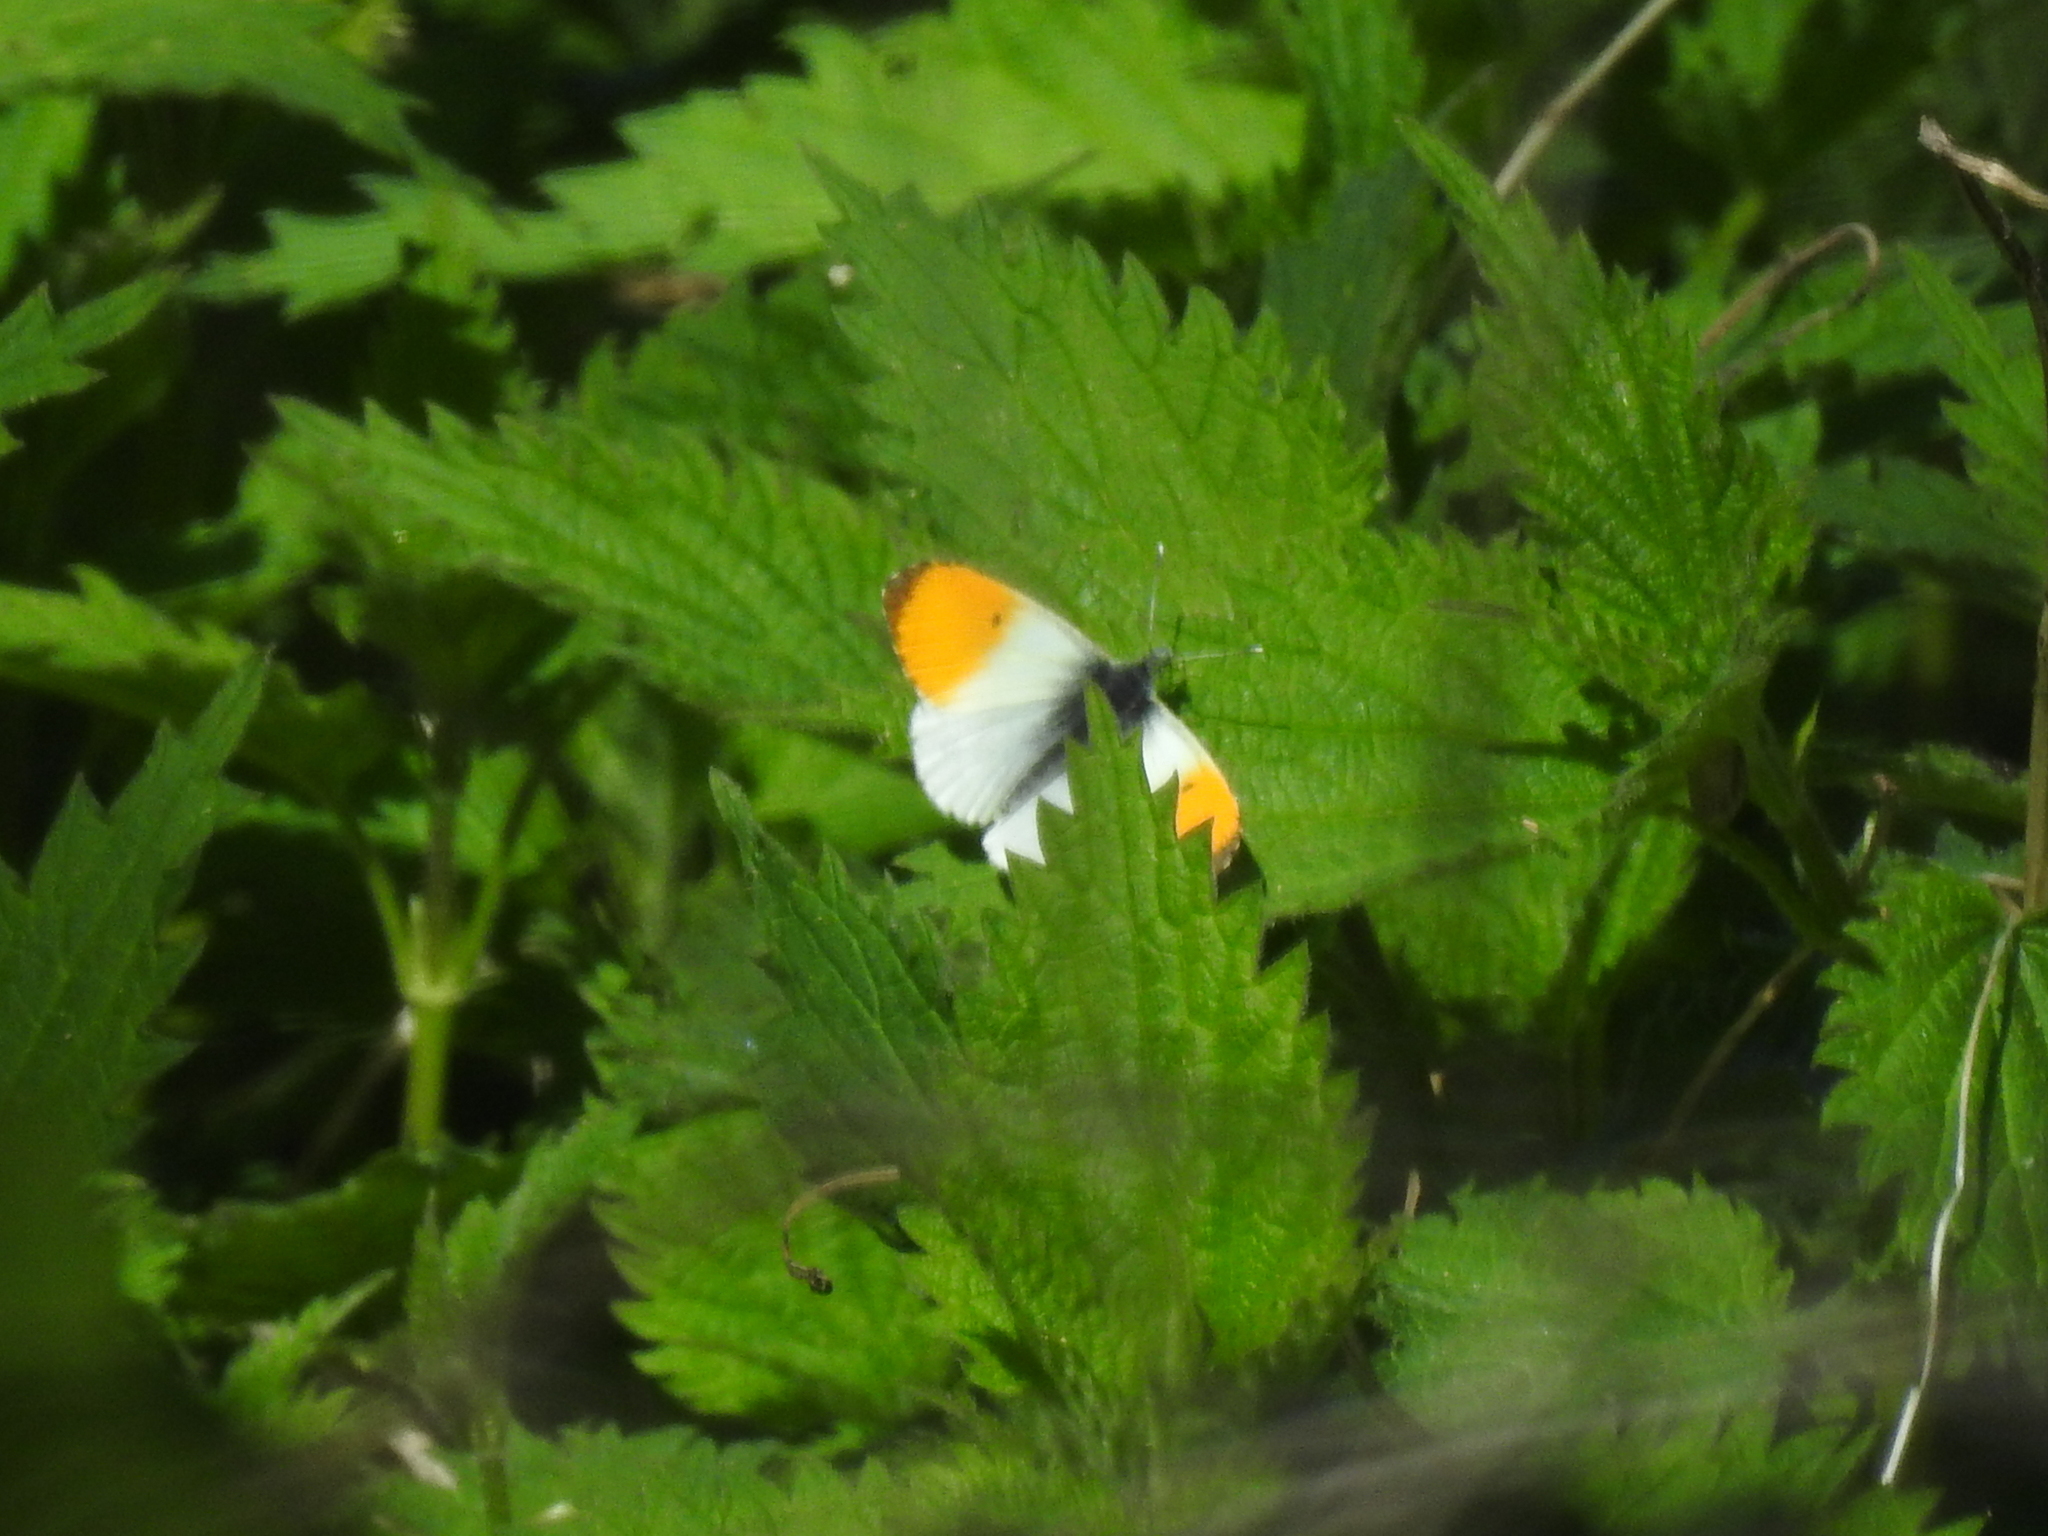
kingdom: Animalia
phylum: Arthropoda
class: Insecta
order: Lepidoptera
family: Pieridae
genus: Anthocharis
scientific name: Anthocharis cardamines
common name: Orange-tip
